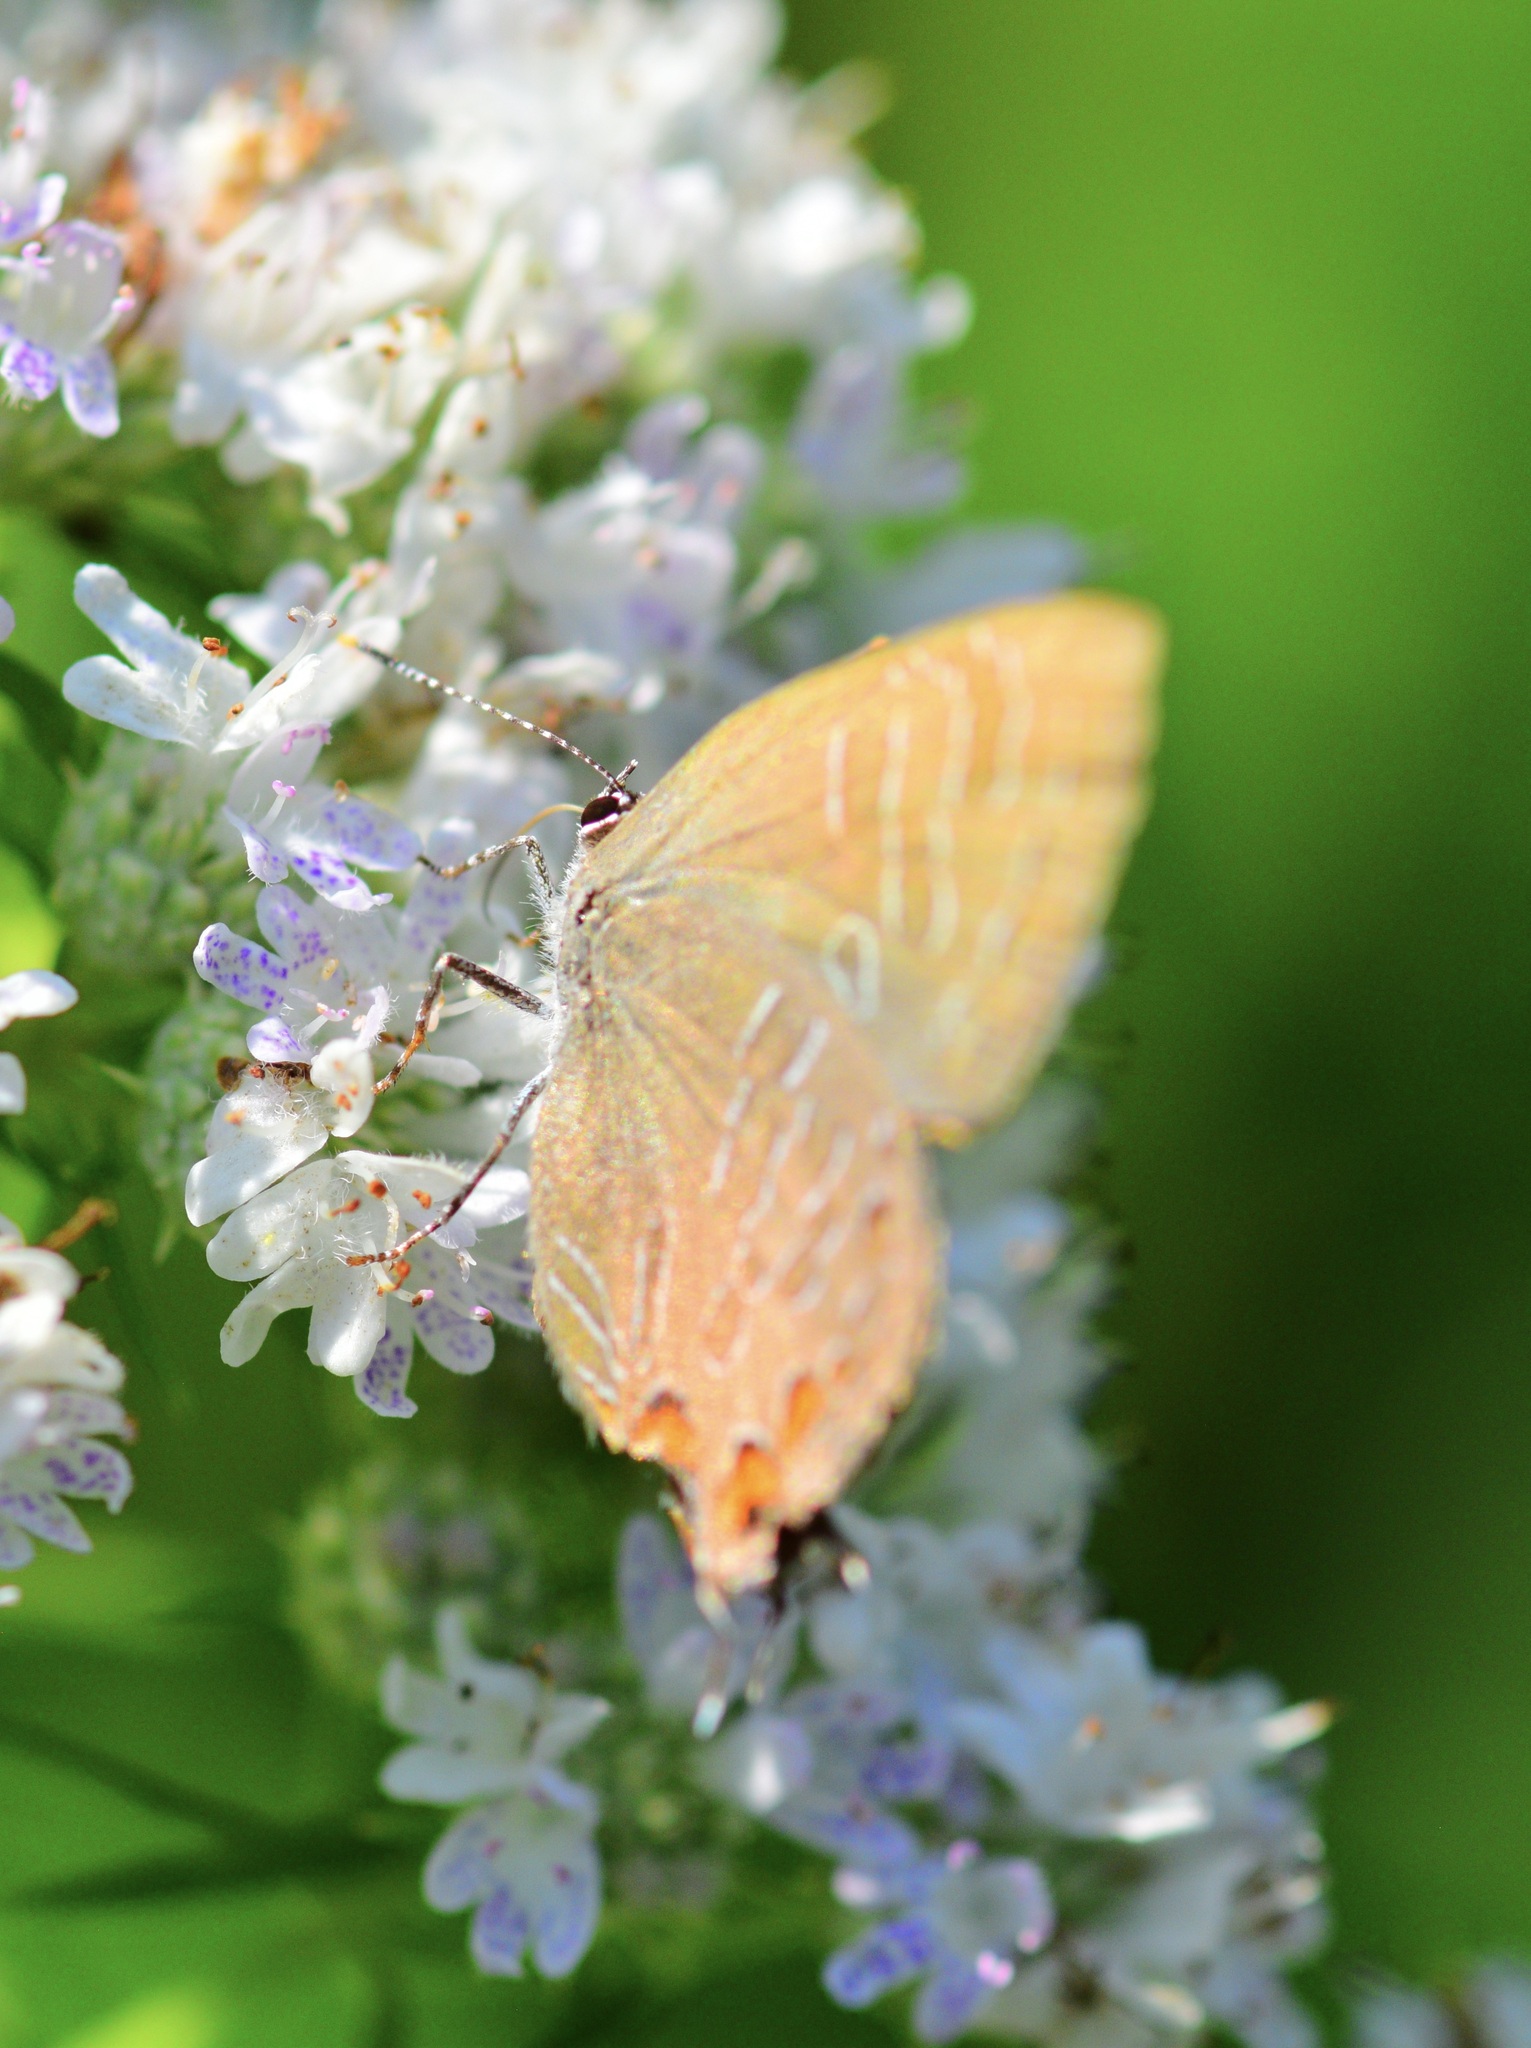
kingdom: Animalia
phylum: Arthropoda
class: Insecta
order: Lepidoptera
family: Lycaenidae
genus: Satyrium
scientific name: Satyrium liparops
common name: Striped hairstreak
